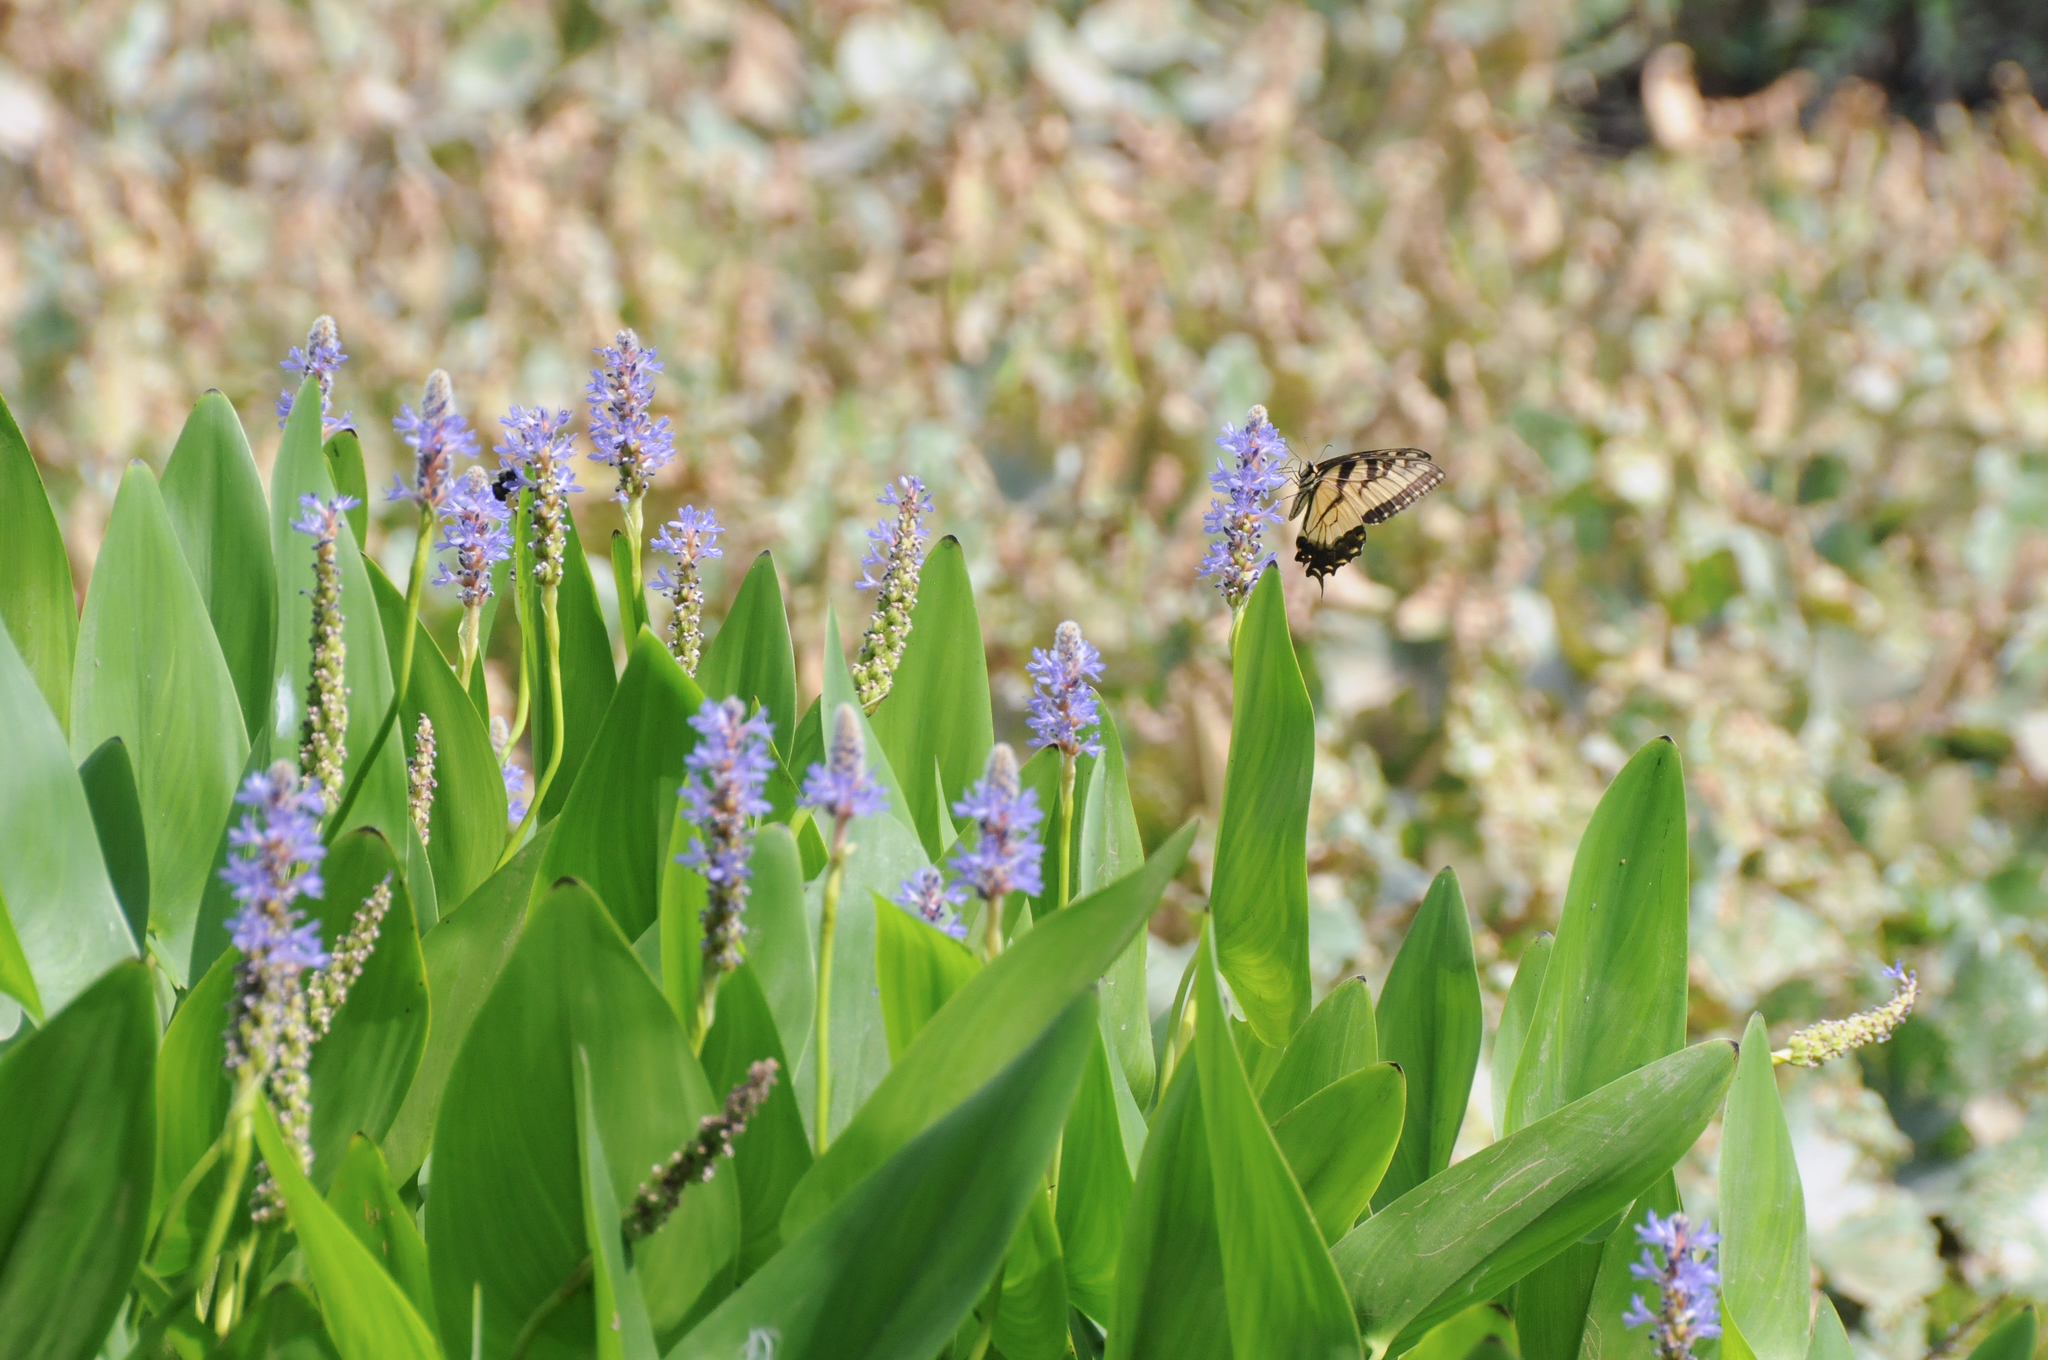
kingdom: Animalia
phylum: Arthropoda
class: Insecta
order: Lepidoptera
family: Papilionidae
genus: Papilio
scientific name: Papilio glaucus
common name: Tiger swallowtail
